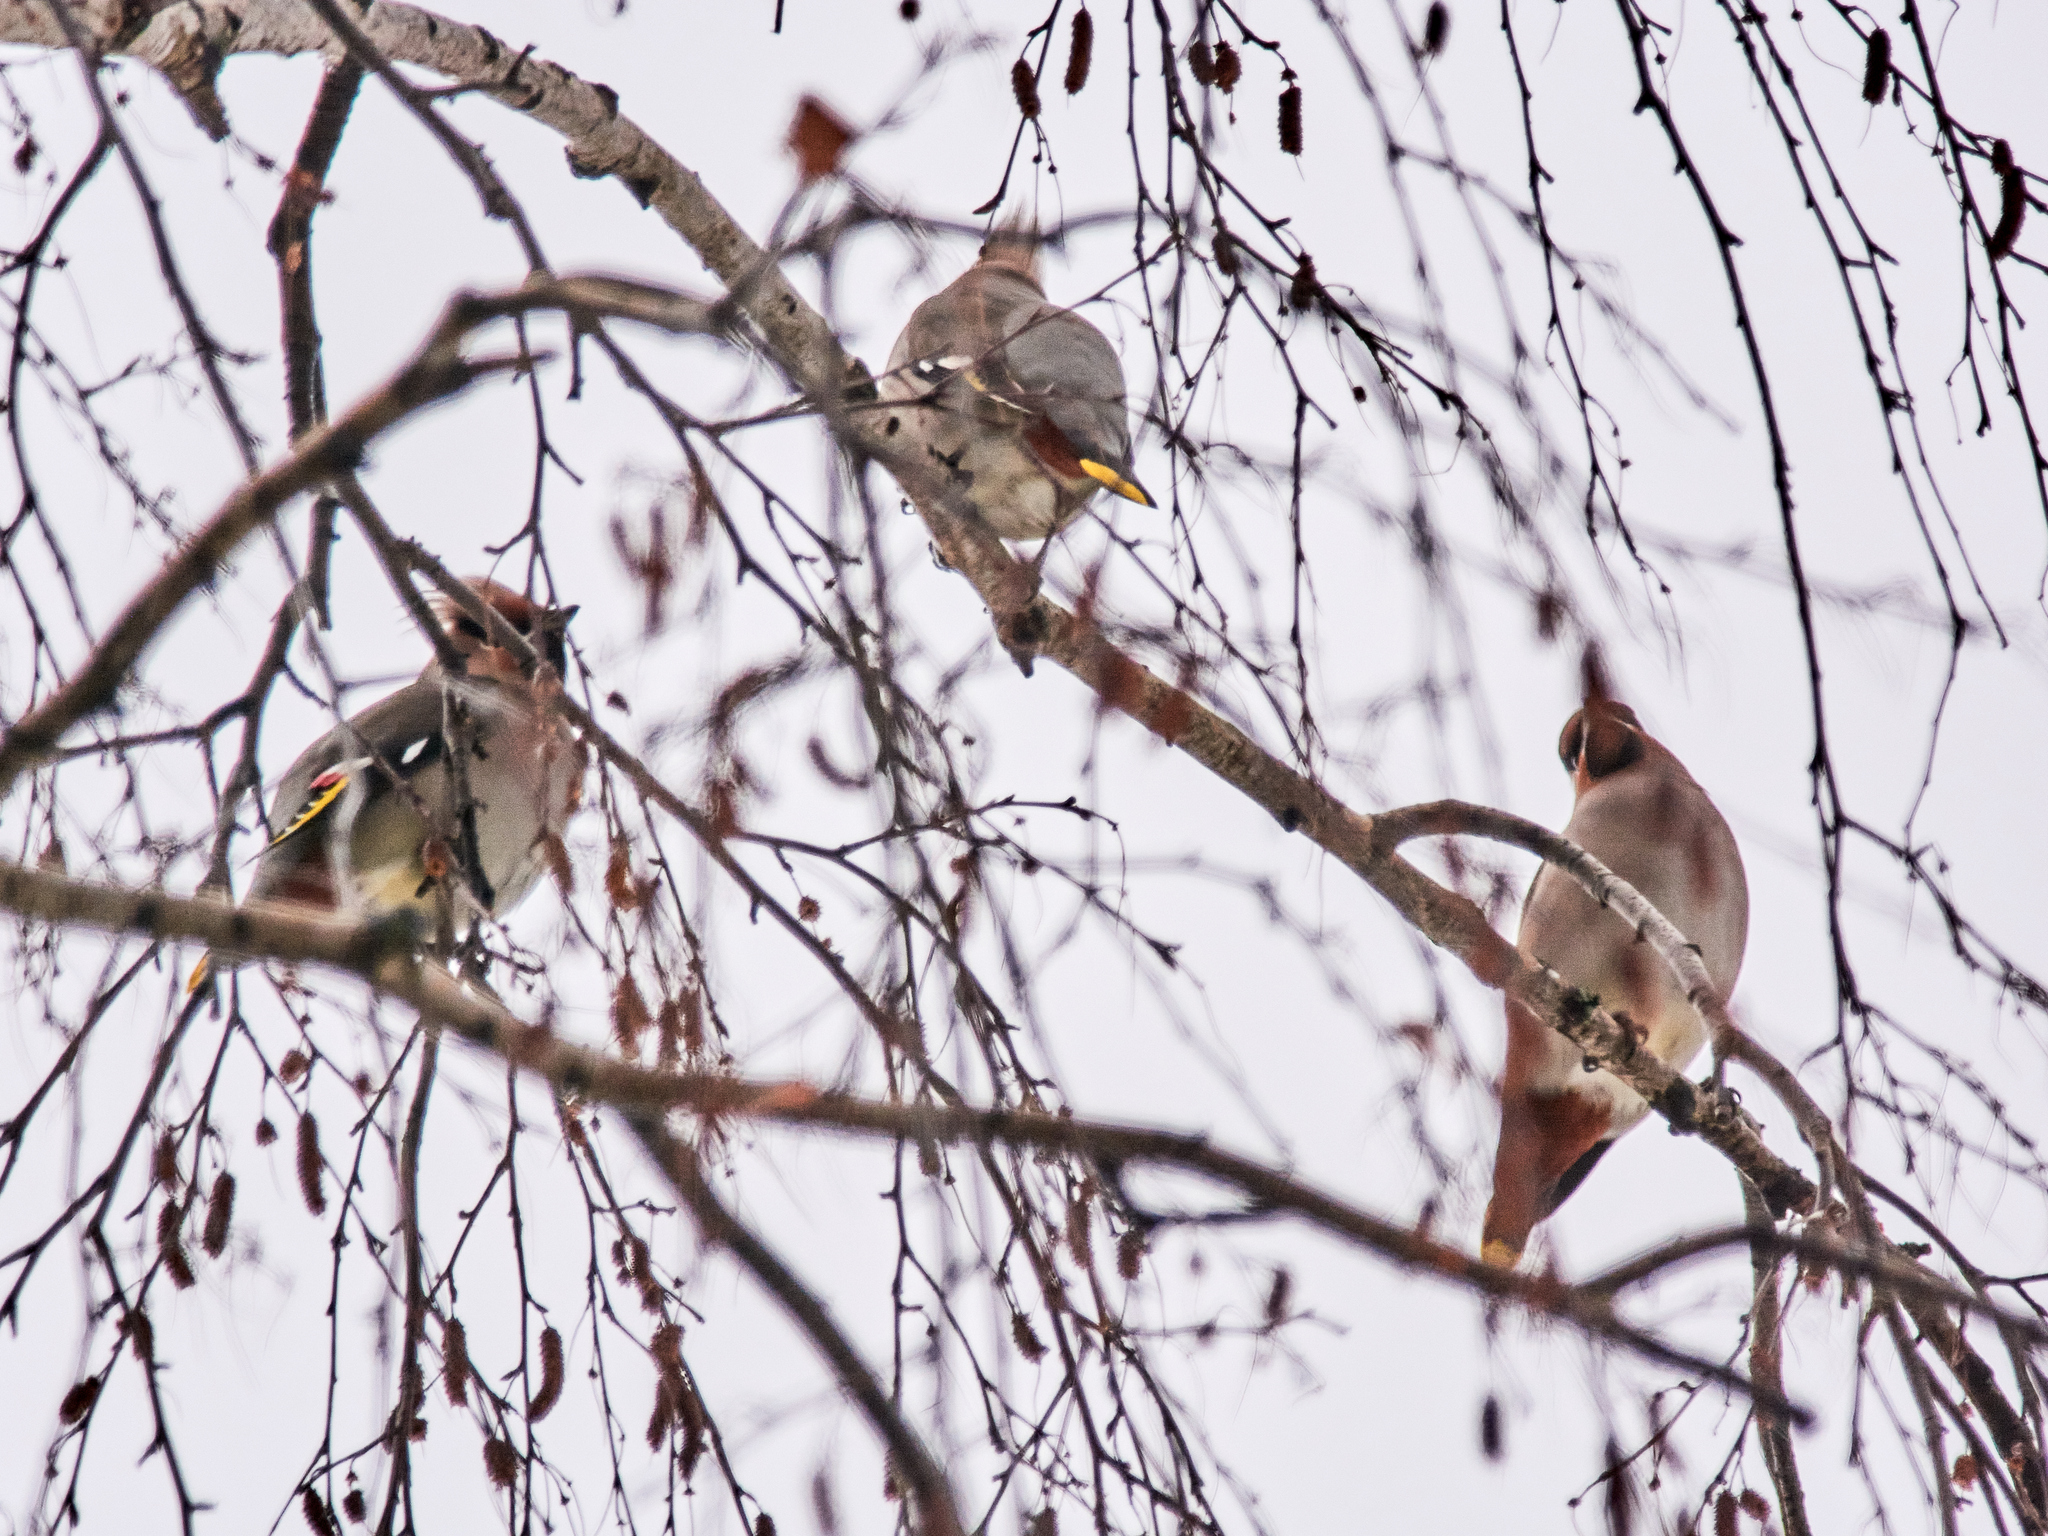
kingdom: Animalia
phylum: Chordata
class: Aves
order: Passeriformes
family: Bombycillidae
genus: Bombycilla
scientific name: Bombycilla garrulus
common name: Bohemian waxwing
